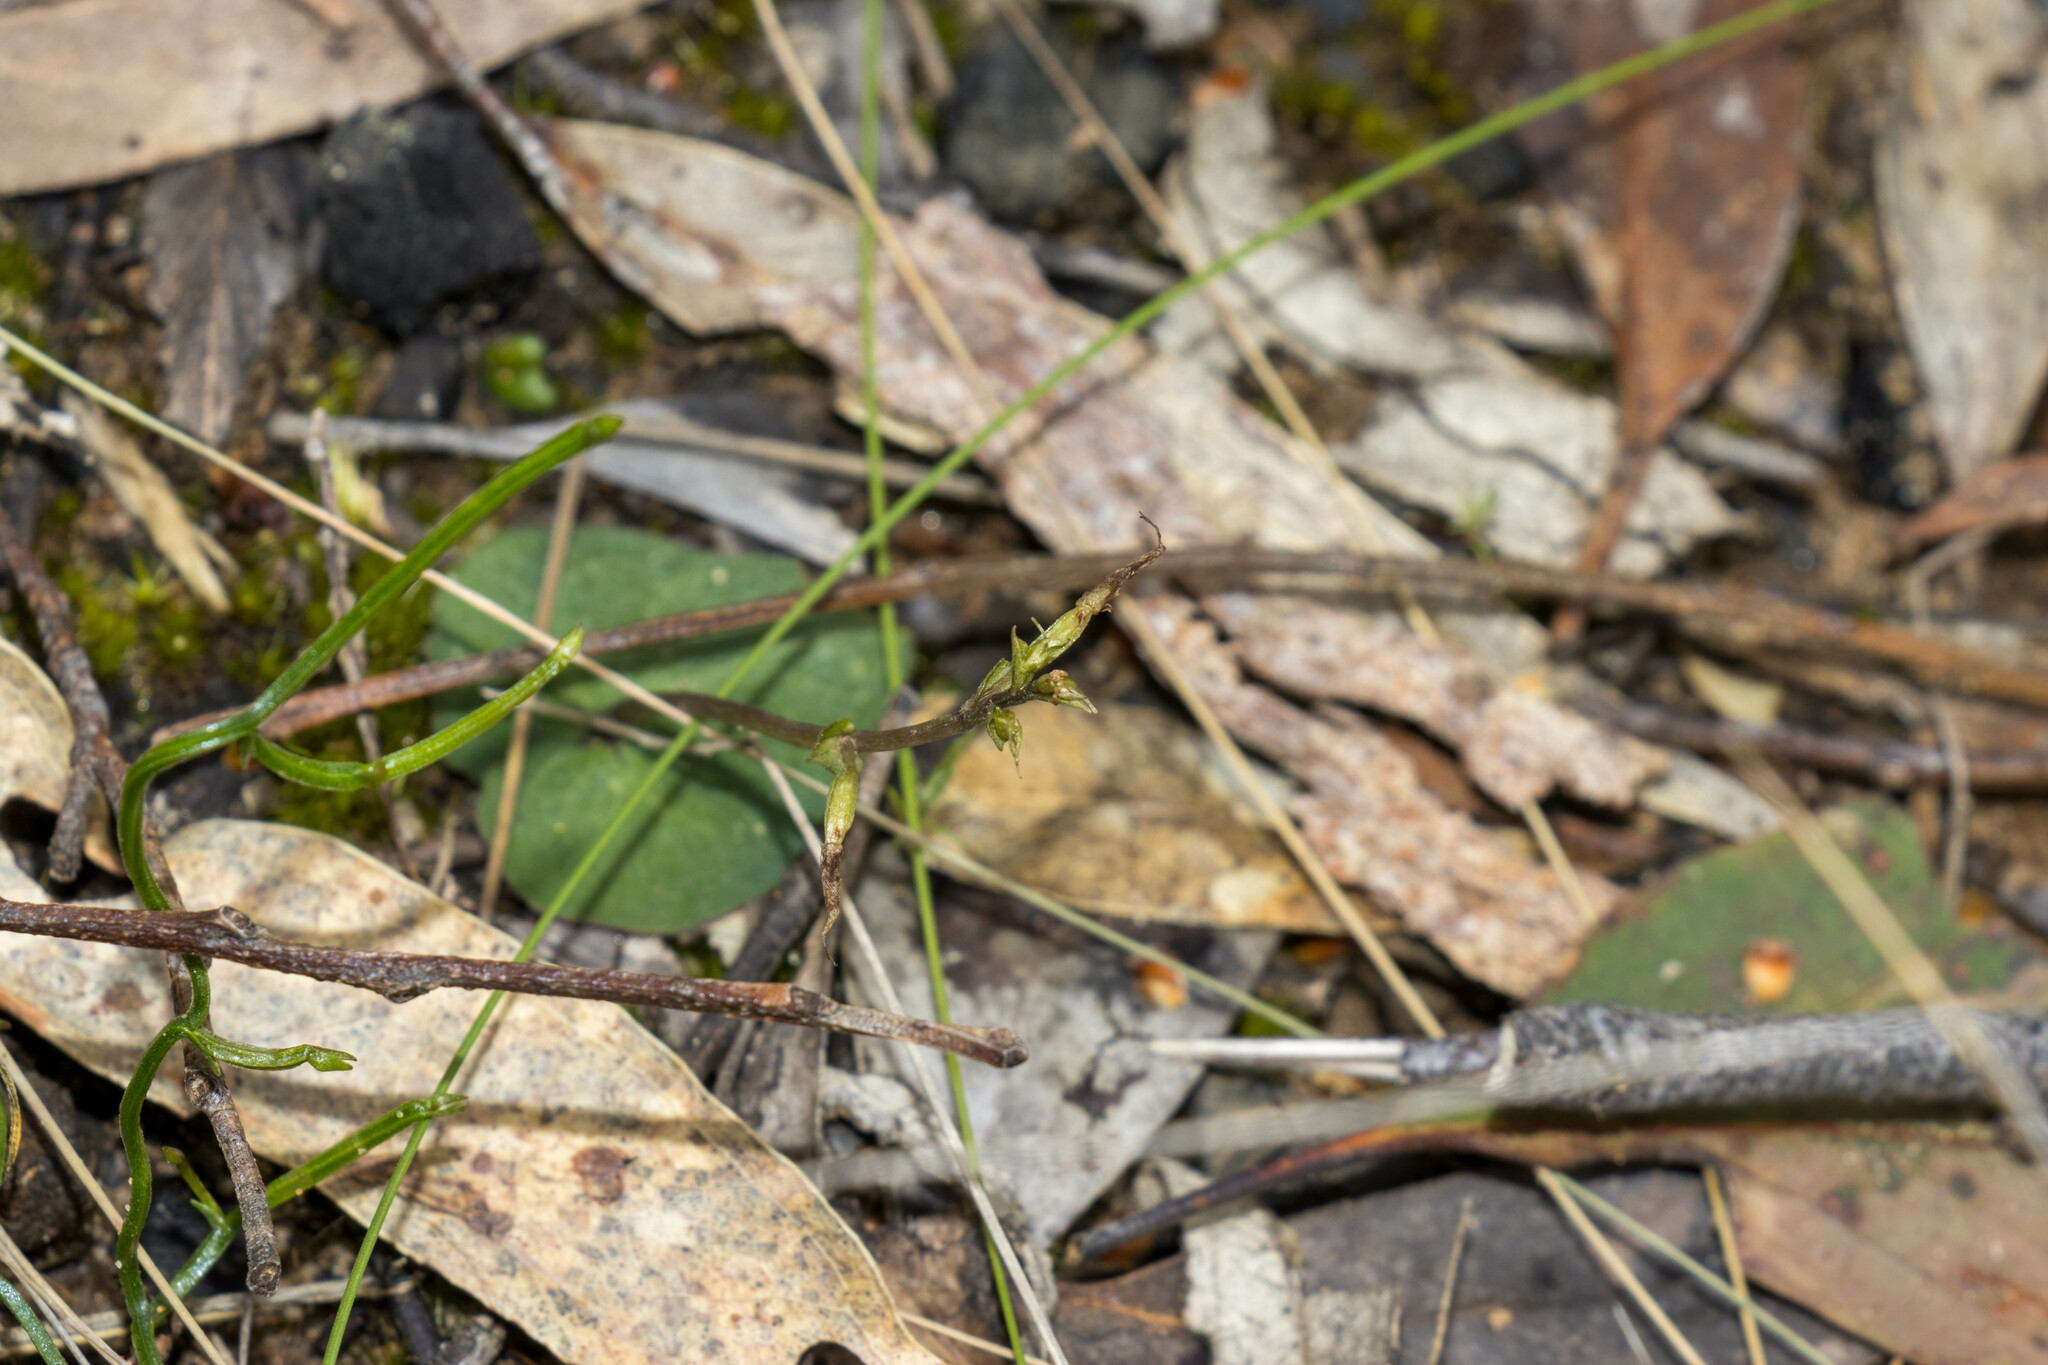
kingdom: Plantae
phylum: Tracheophyta
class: Liliopsida
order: Asparagales
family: Orchidaceae
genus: Acianthus
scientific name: Acianthus pusillus
